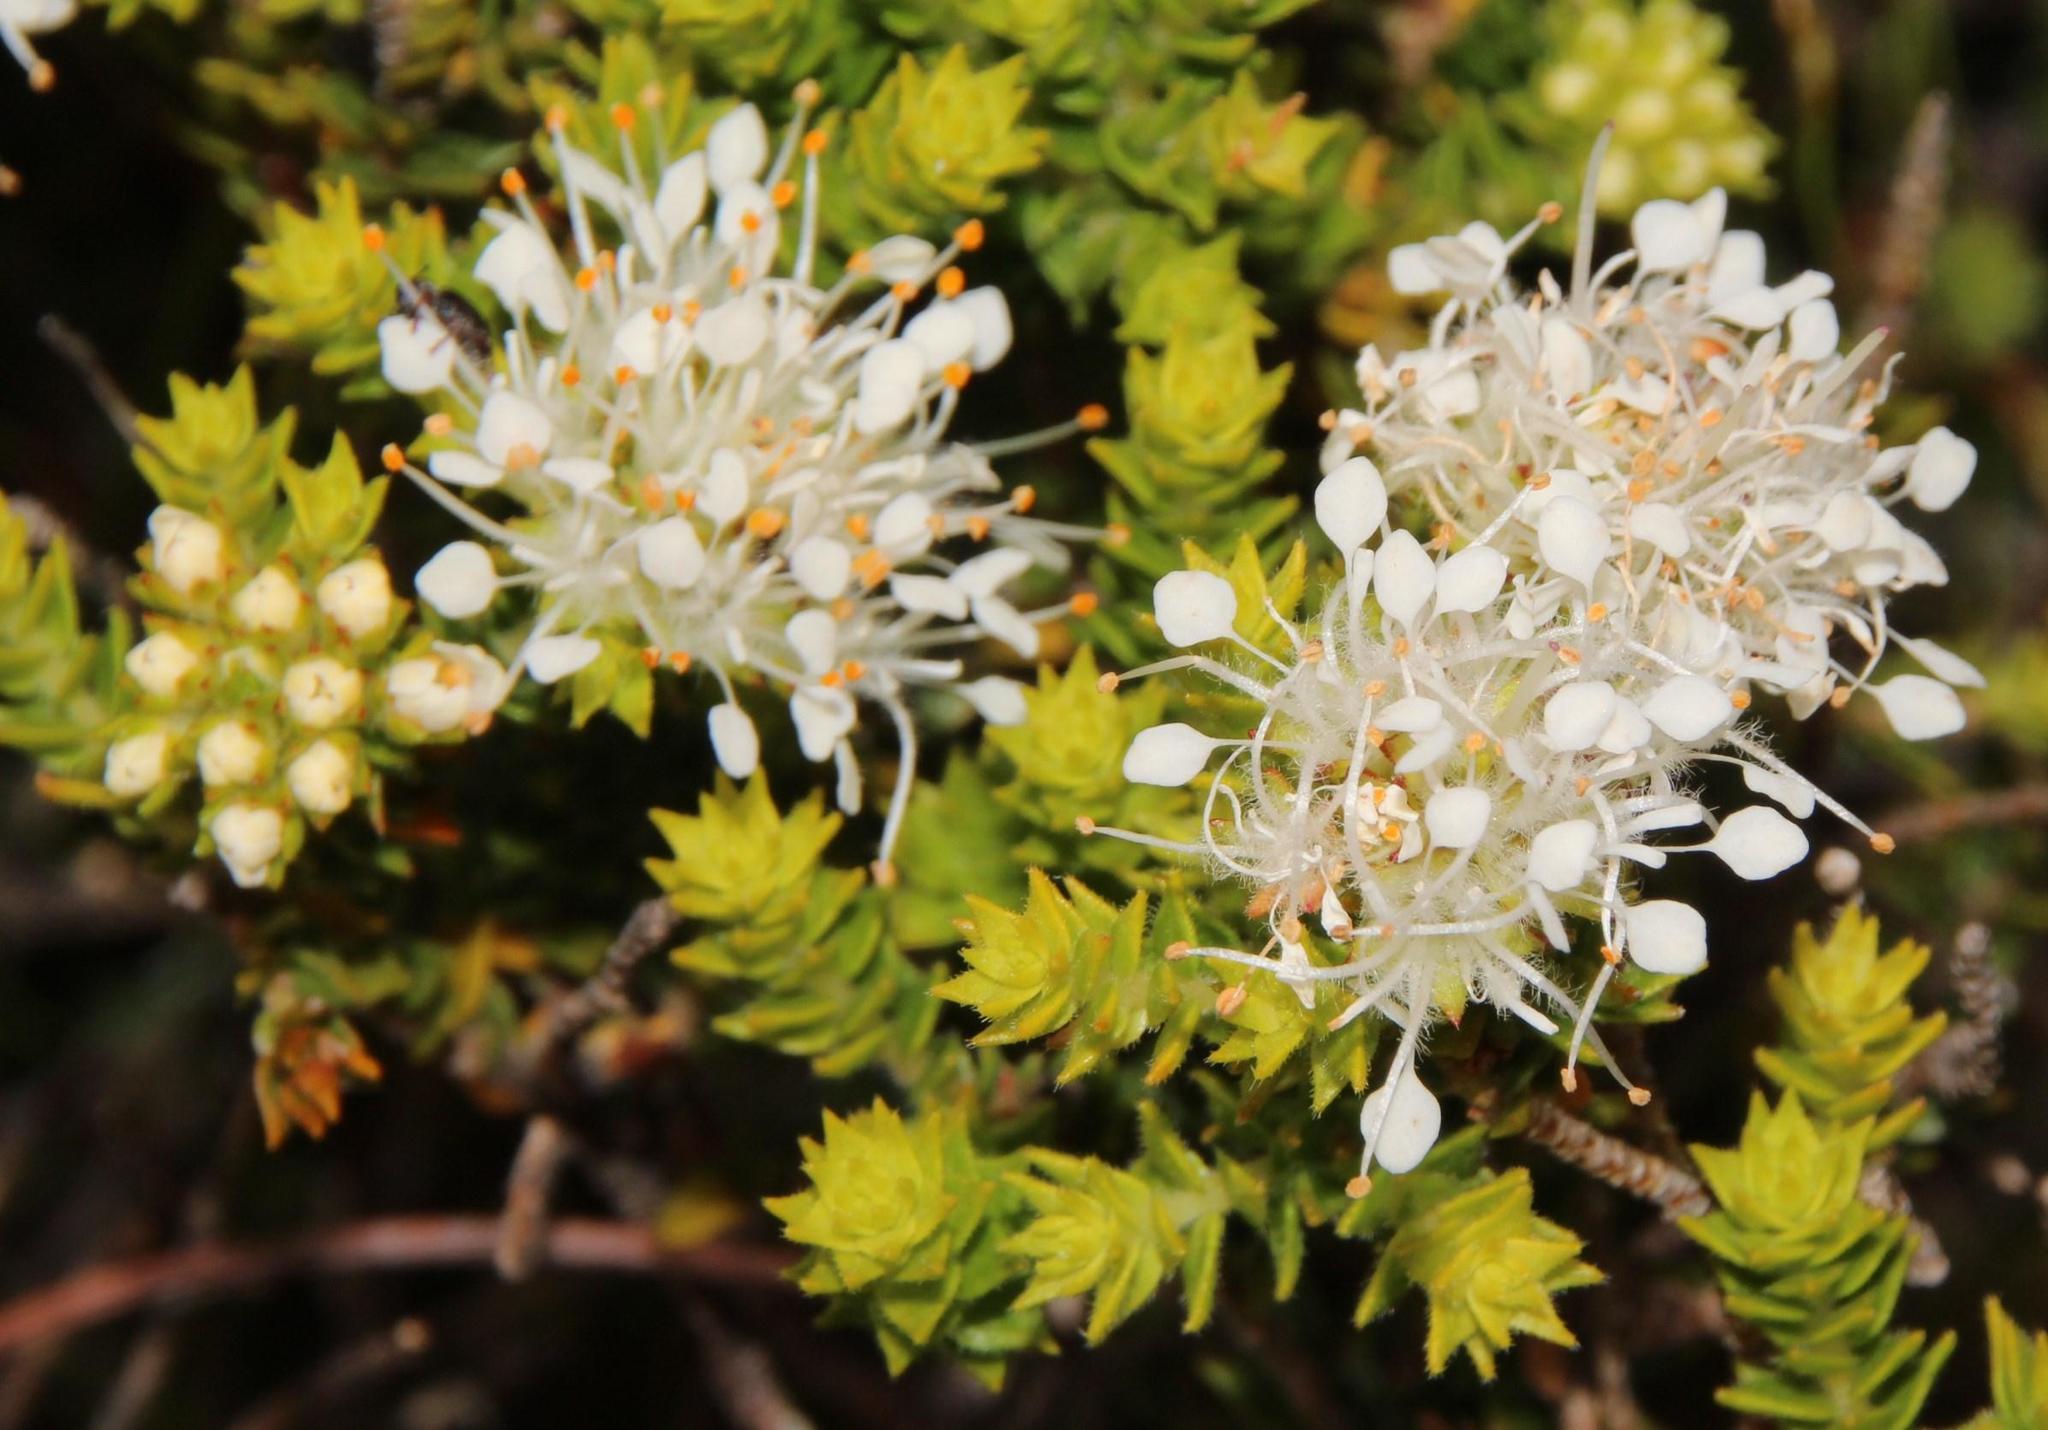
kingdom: Plantae
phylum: Tracheophyta
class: Magnoliopsida
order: Sapindales
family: Rutaceae
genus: Agathosma
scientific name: Agathosma imbricata
